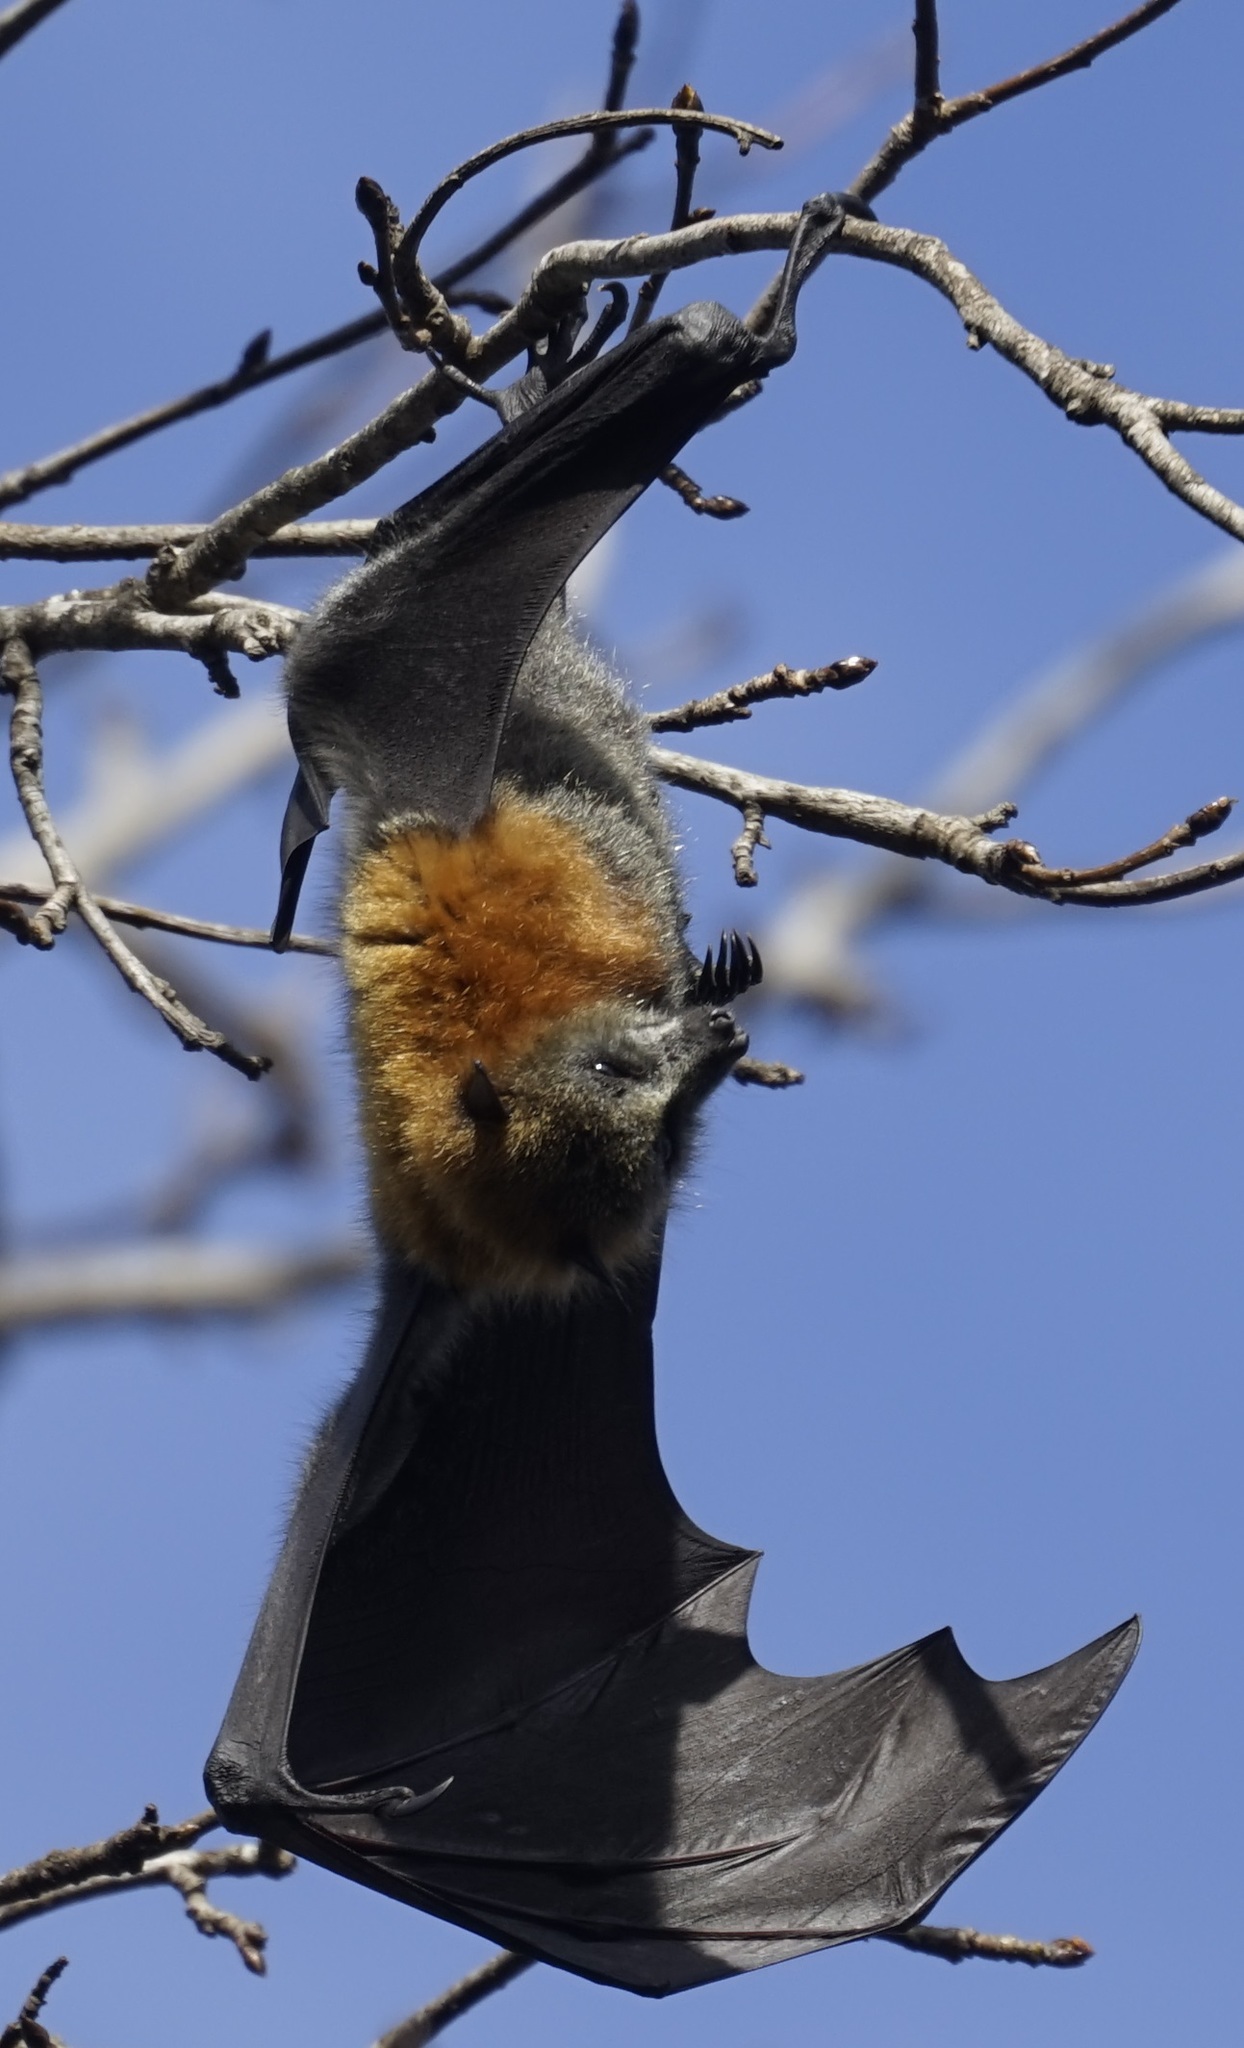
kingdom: Animalia
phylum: Chordata
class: Mammalia
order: Chiroptera
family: Pteropodidae
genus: Pteropus
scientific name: Pteropus poliocephalus
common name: Gray-headed flying fox
